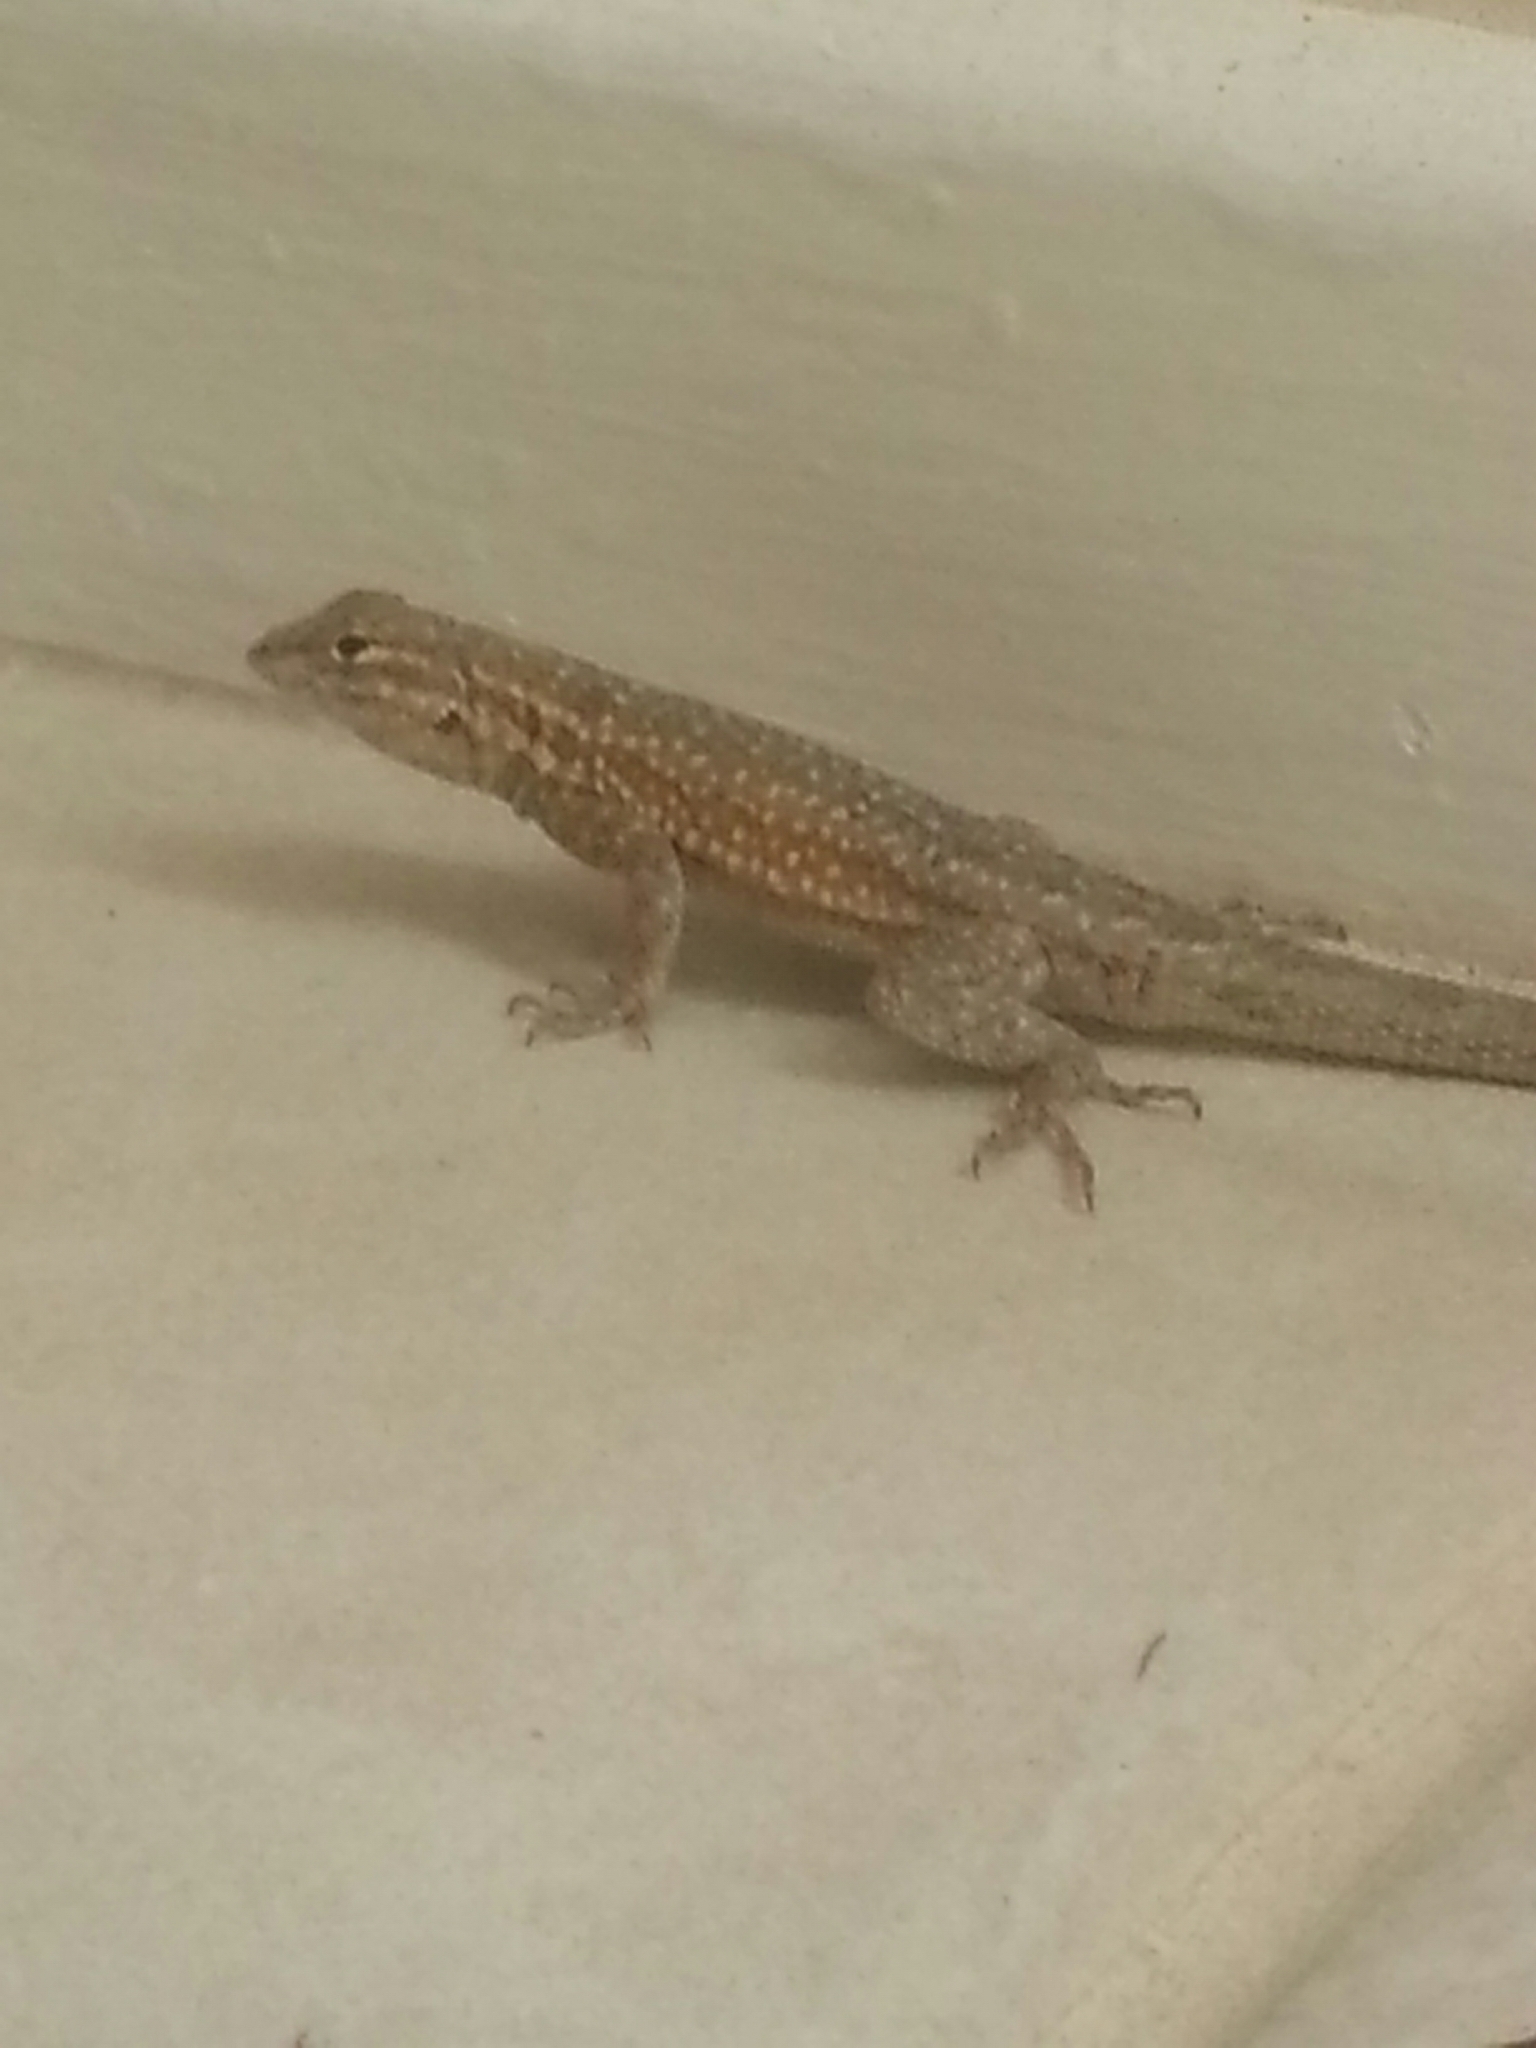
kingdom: Animalia
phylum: Chordata
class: Squamata
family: Phrynosomatidae
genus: Uta
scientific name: Uta stansburiana
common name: Side-blotched lizard
